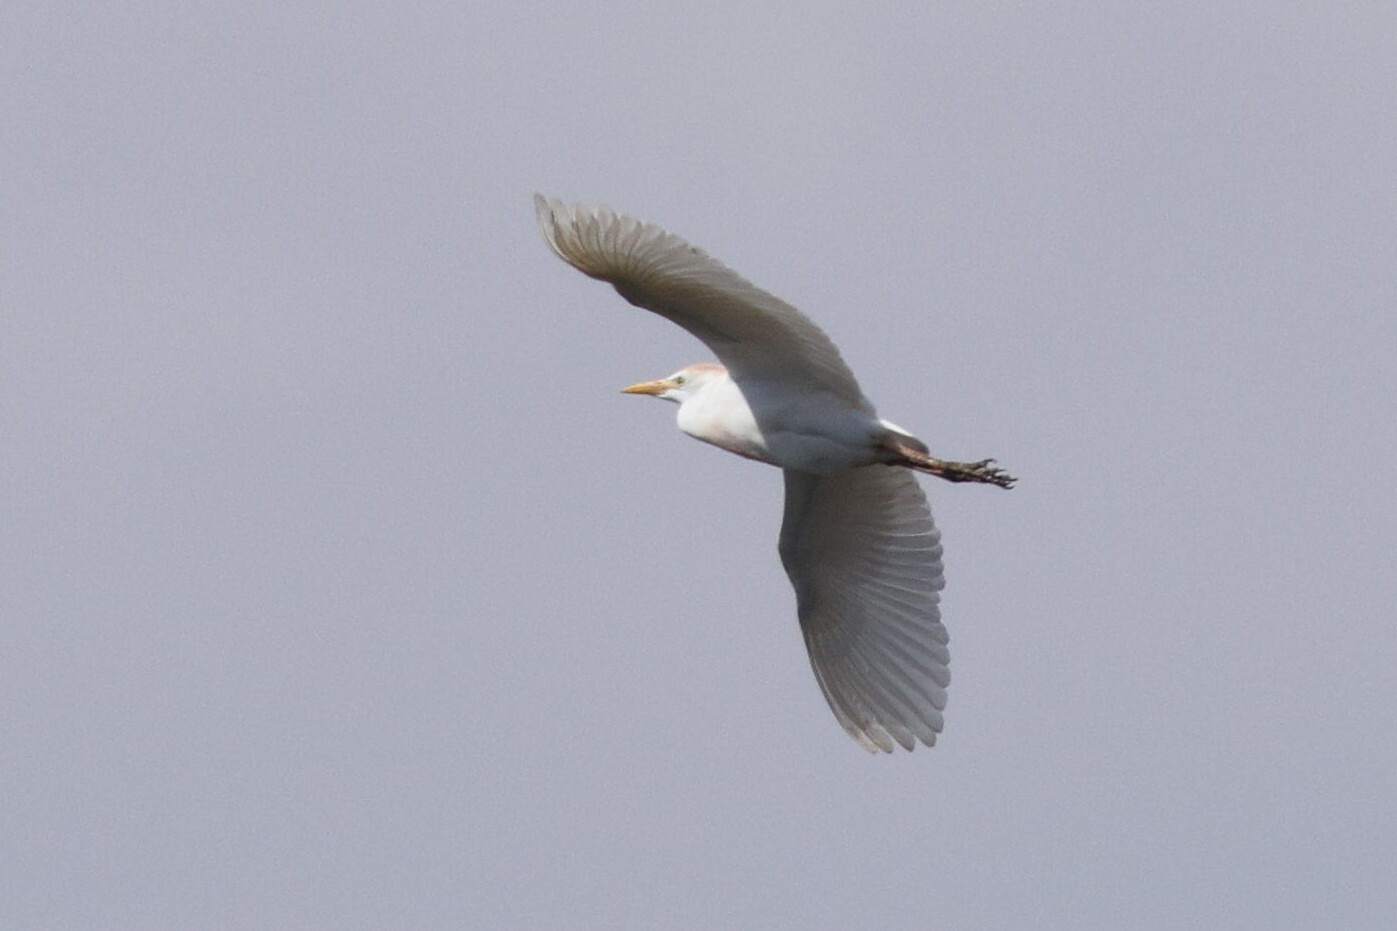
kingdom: Animalia
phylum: Chordata
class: Aves
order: Pelecaniformes
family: Ardeidae
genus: Bubulcus
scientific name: Bubulcus ibis
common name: Cattle egret
